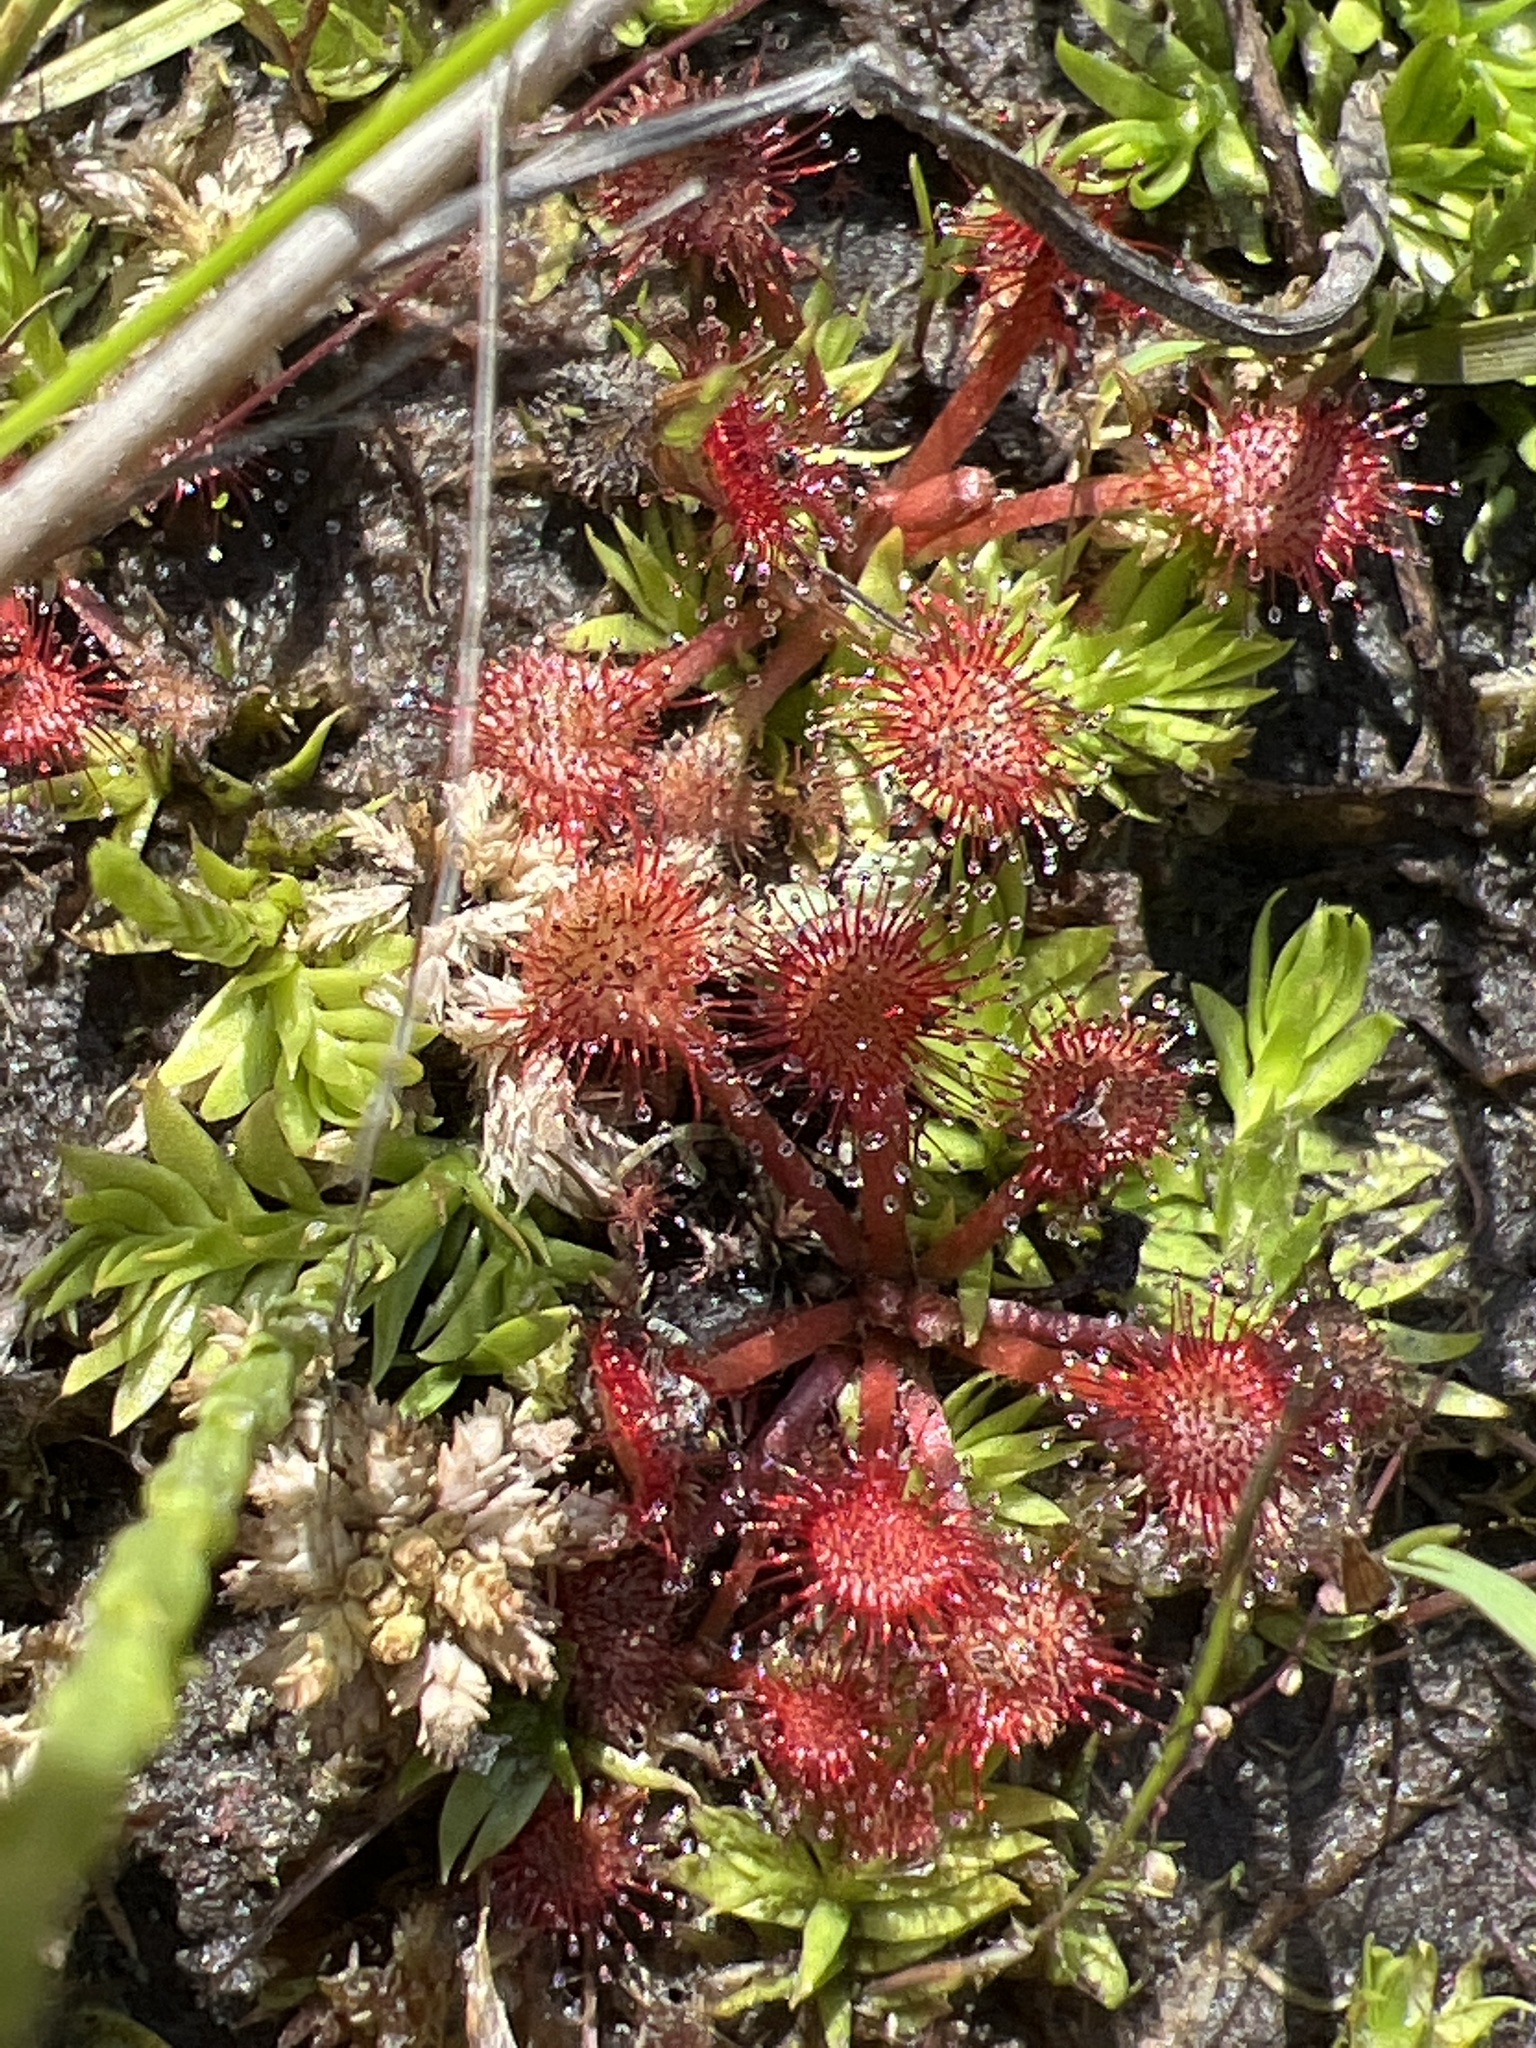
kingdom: Plantae
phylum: Tracheophyta
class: Magnoliopsida
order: Caryophyllales
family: Droseraceae
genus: Drosera
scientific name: Drosera capillaris
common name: Pink sundew
